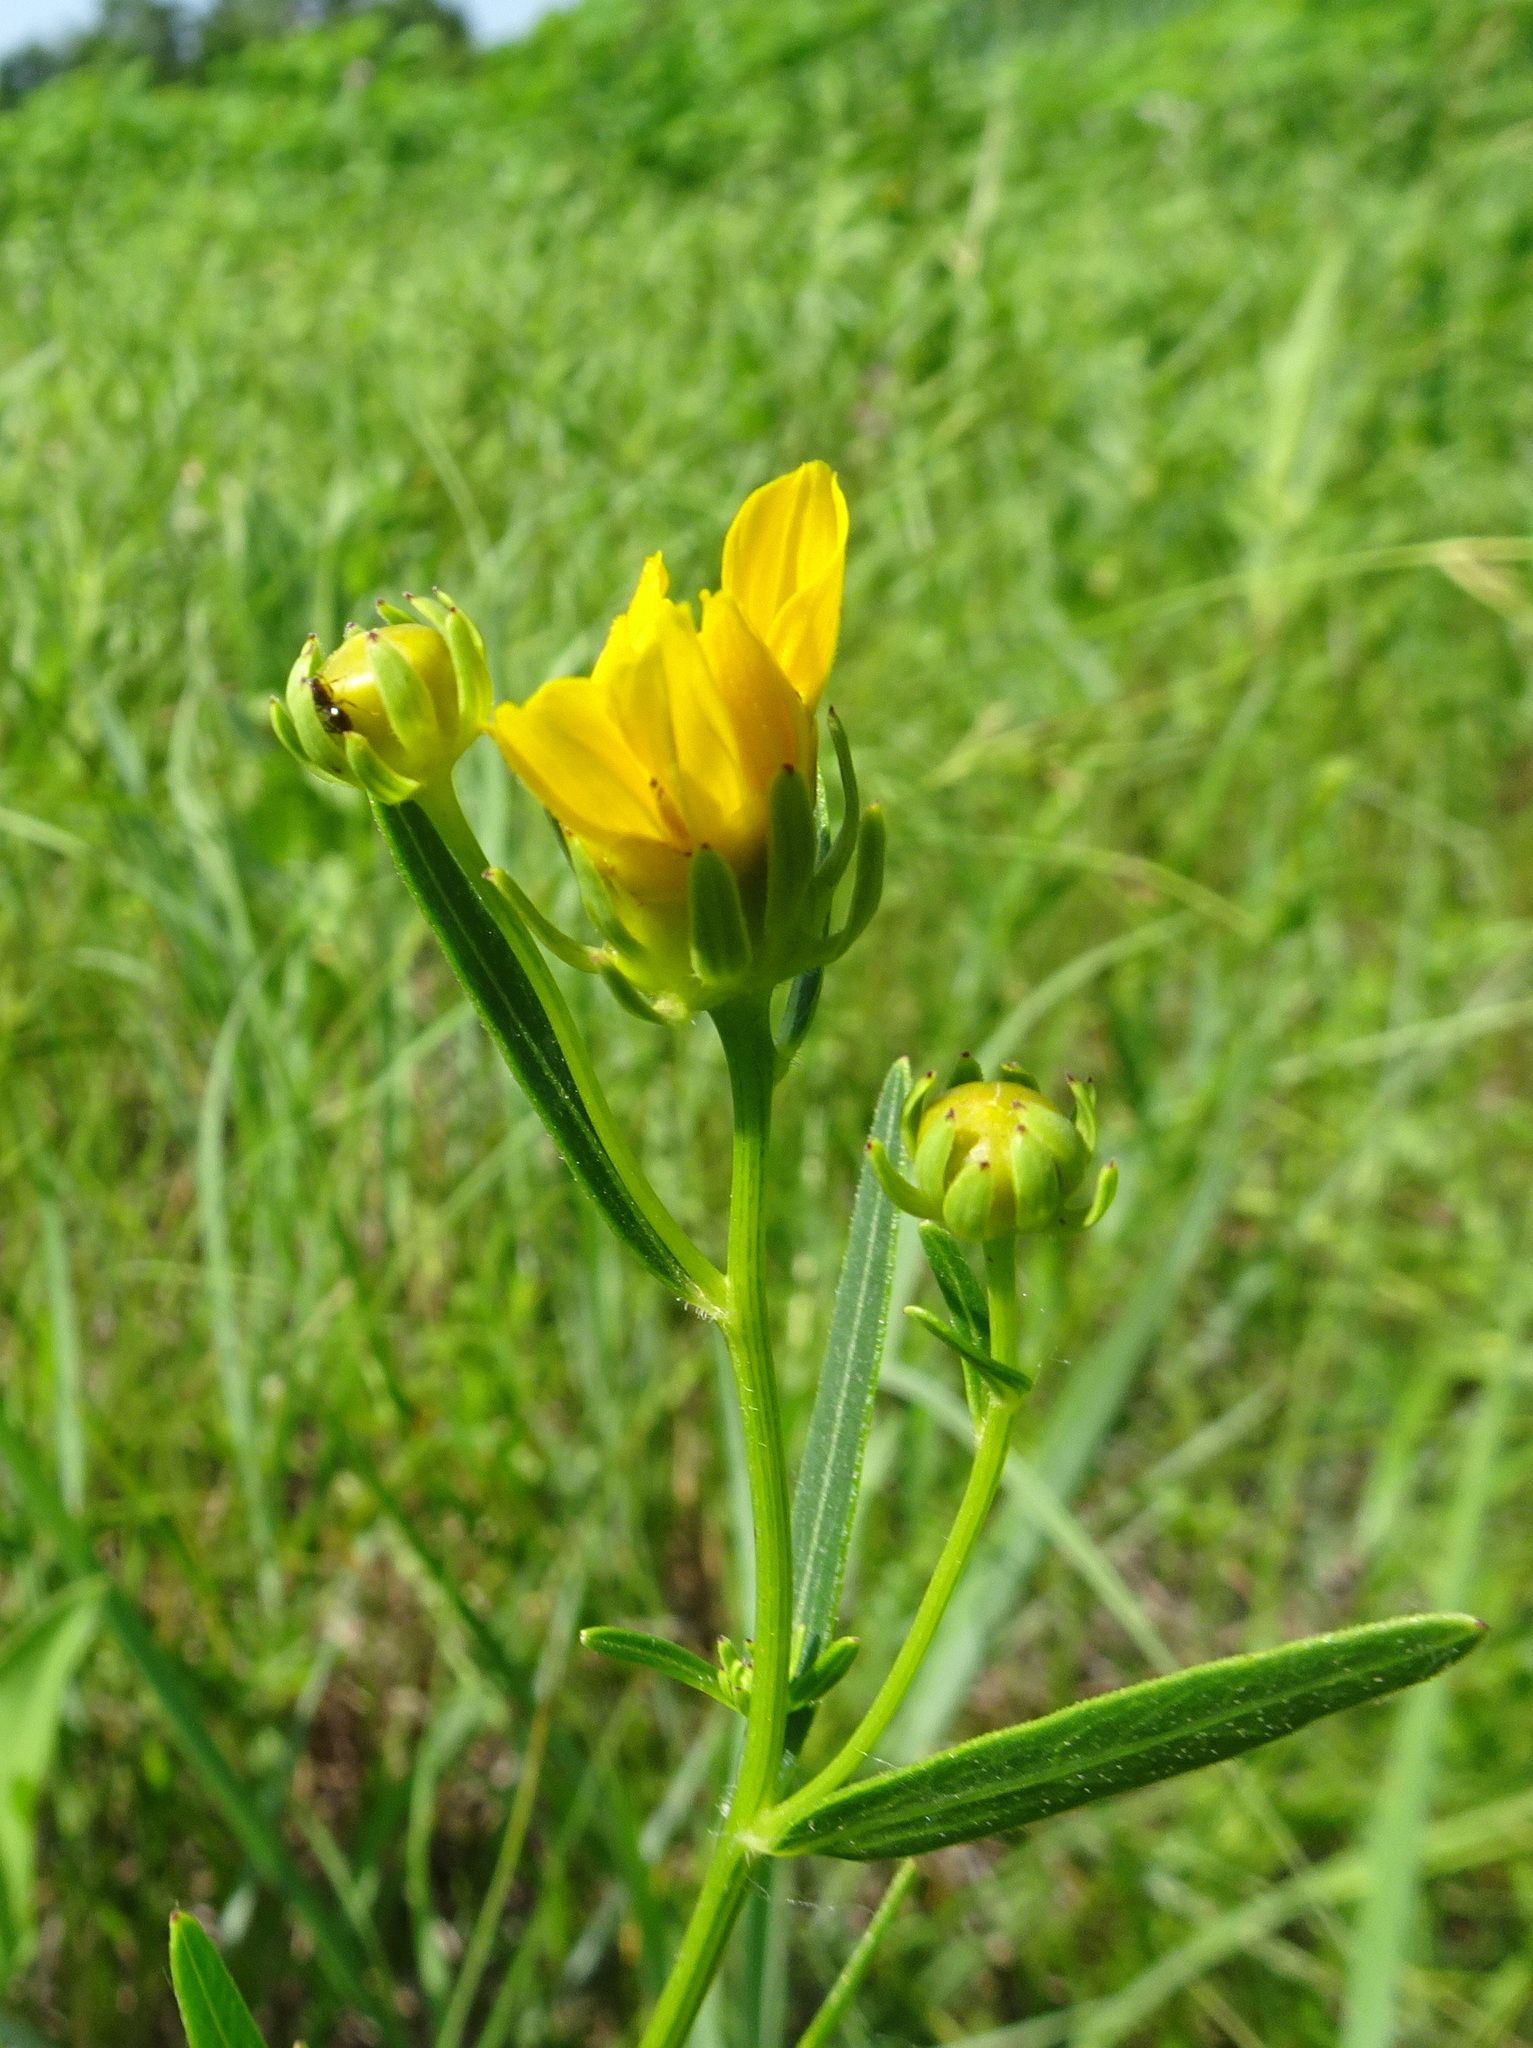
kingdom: Plantae
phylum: Tracheophyta
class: Magnoliopsida
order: Asterales
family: Asteraceae
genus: Coreopsis
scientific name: Coreopsis palmata
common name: Prairie coreopsis
